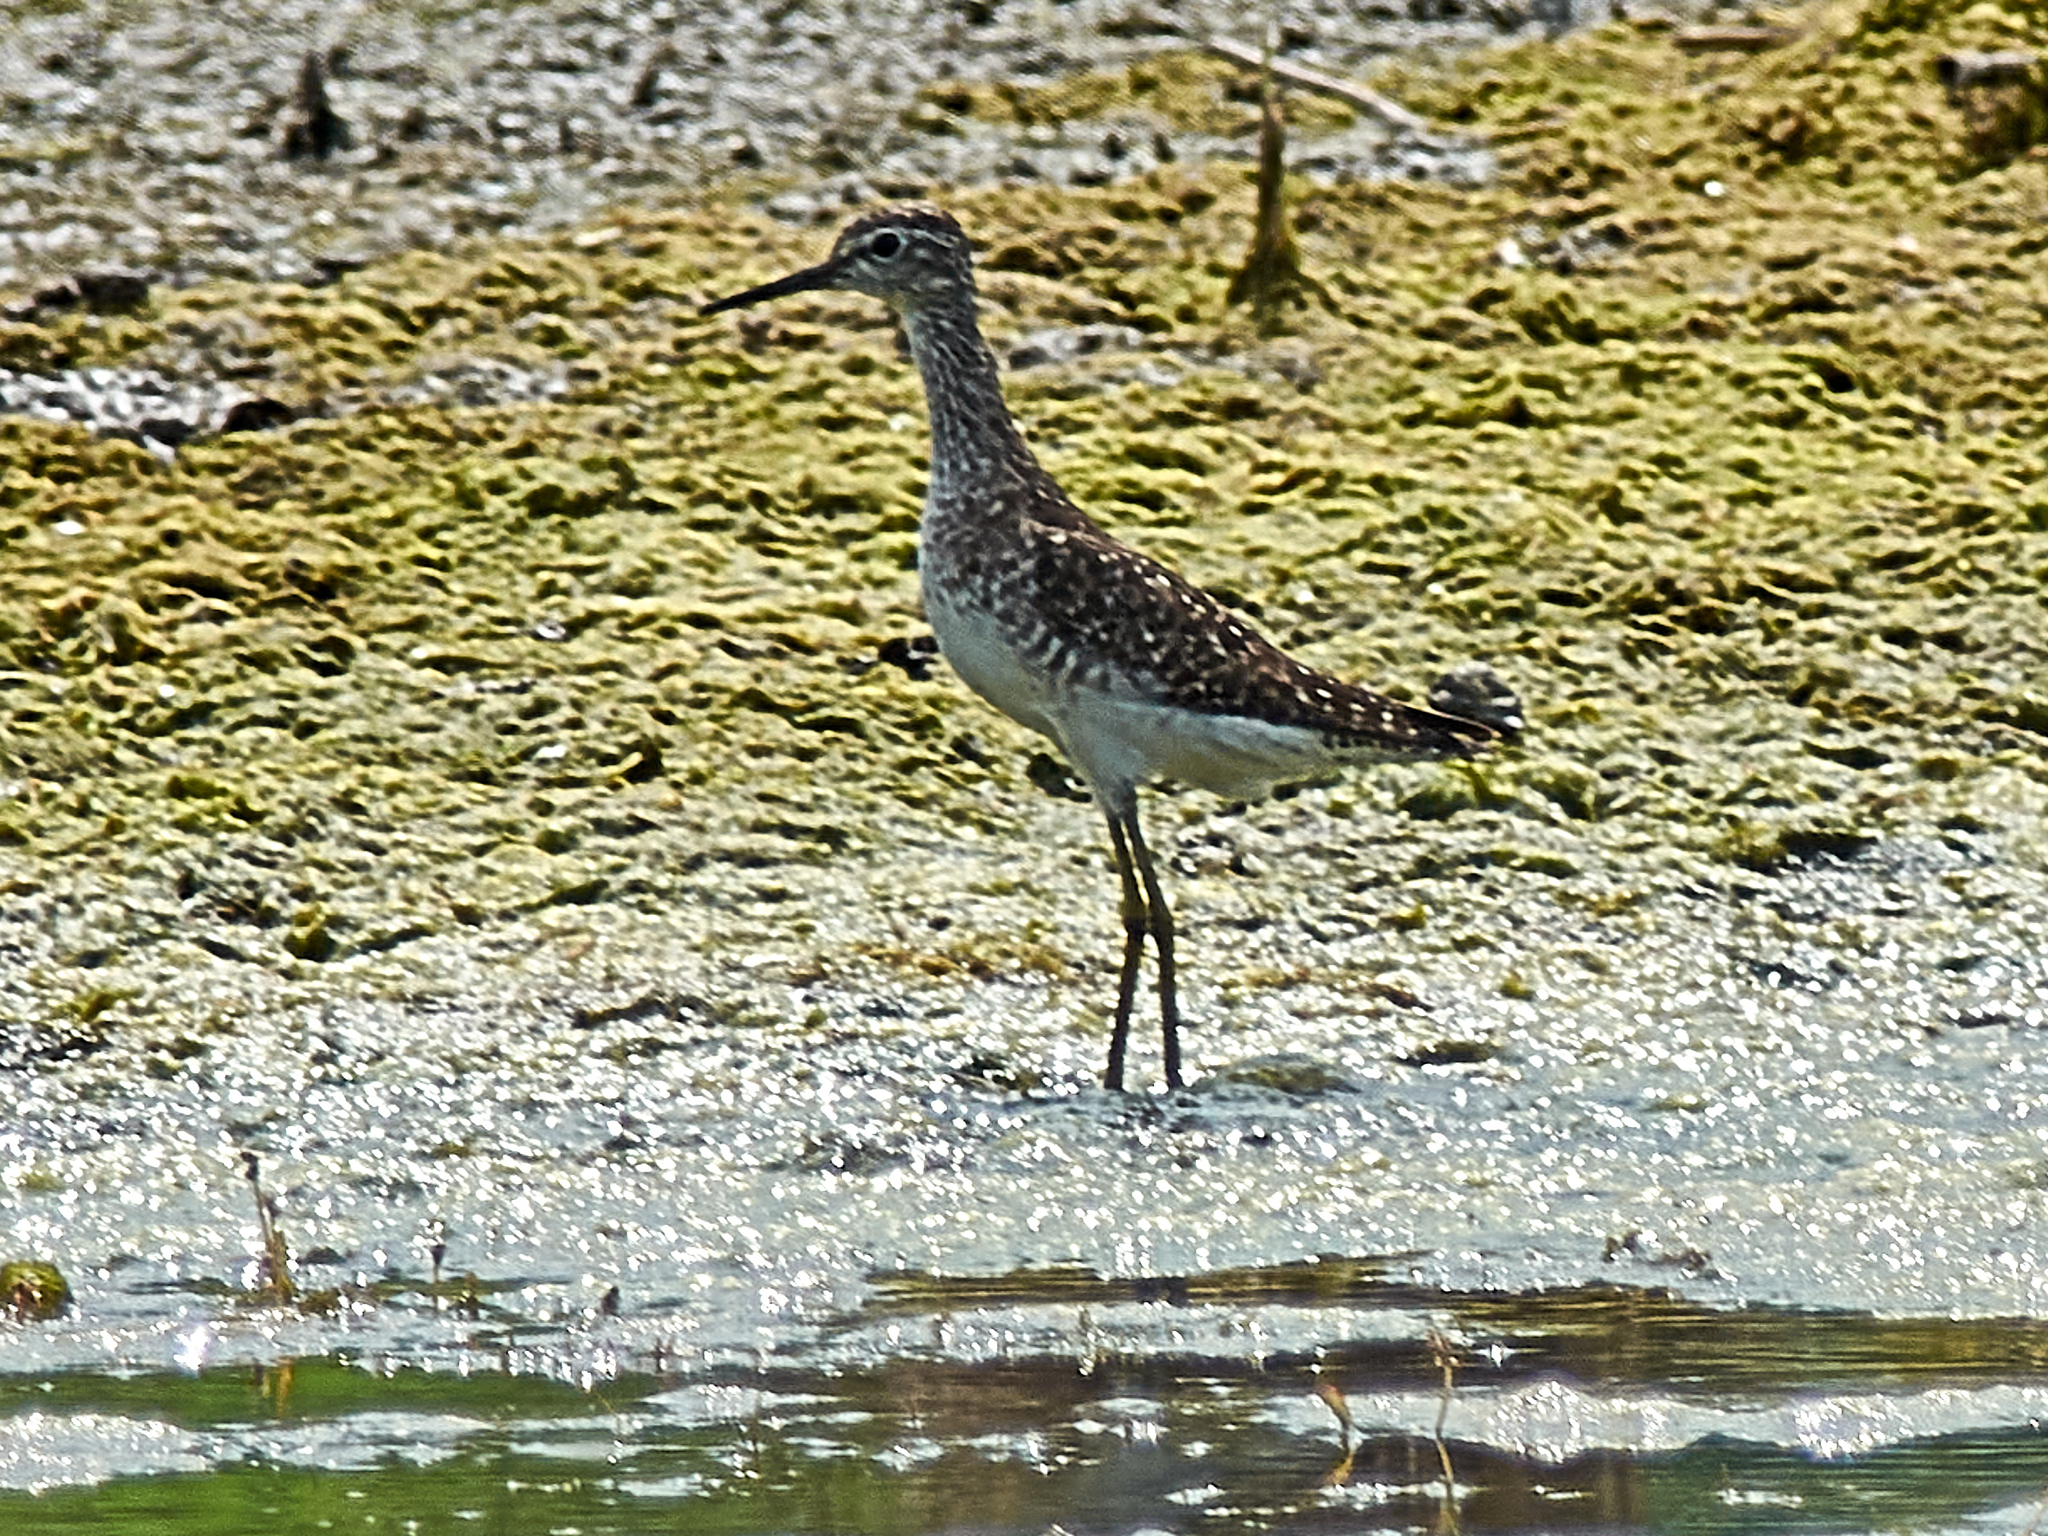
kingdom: Animalia
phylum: Chordata
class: Aves
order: Charadriiformes
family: Scolopacidae
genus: Tringa
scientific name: Tringa glareola
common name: Wood sandpiper
